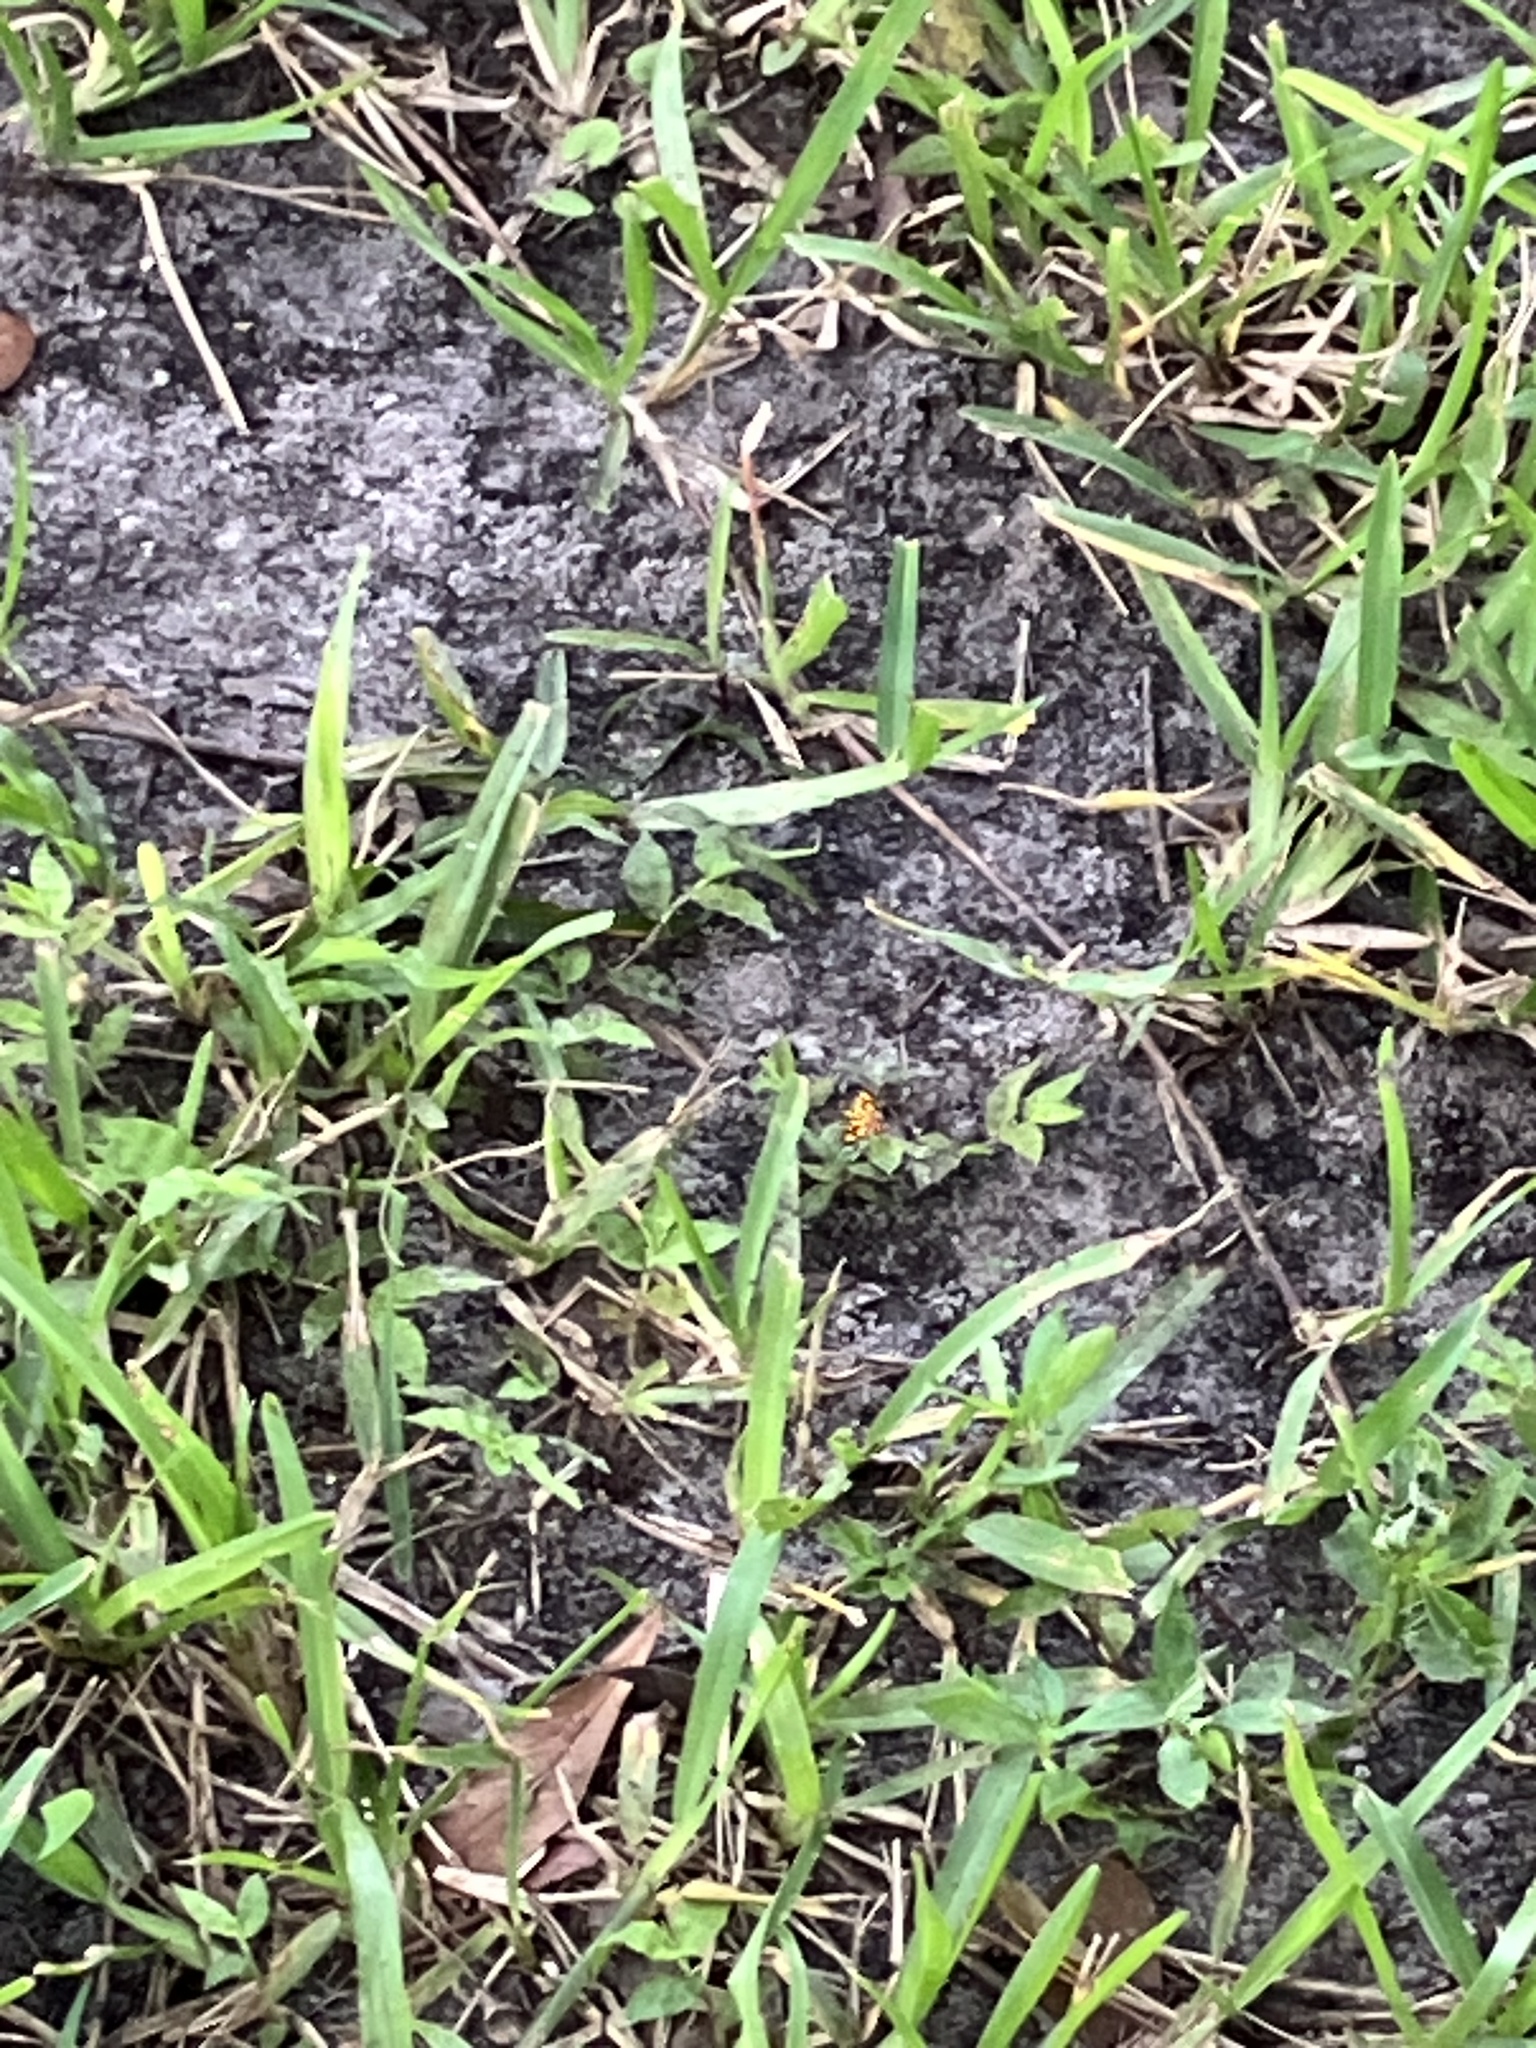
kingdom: Animalia
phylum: Arthropoda
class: Insecta
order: Lepidoptera
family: Crambidae
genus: Syngamia
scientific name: Syngamia florella
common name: Orange-spotted flower moth
